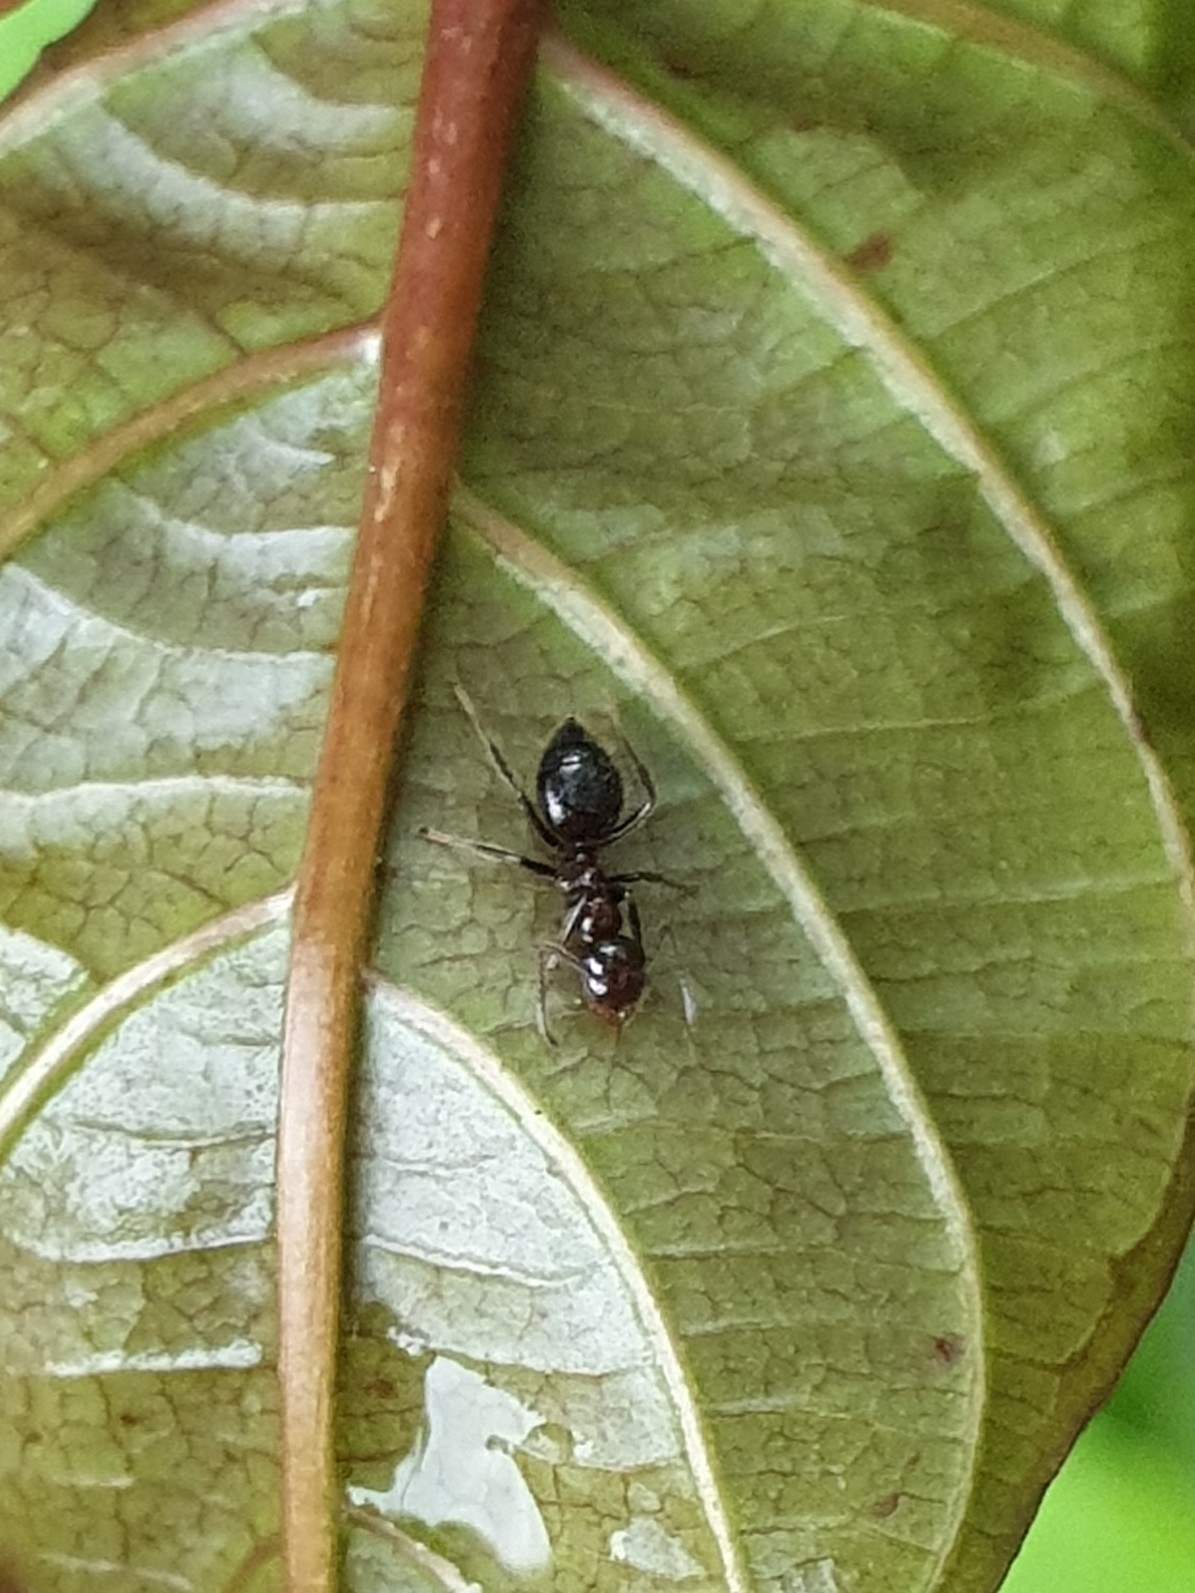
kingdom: Animalia
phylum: Arthropoda
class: Insecta
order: Hymenoptera
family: Formicidae
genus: Colobopsis
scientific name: Colobopsis
